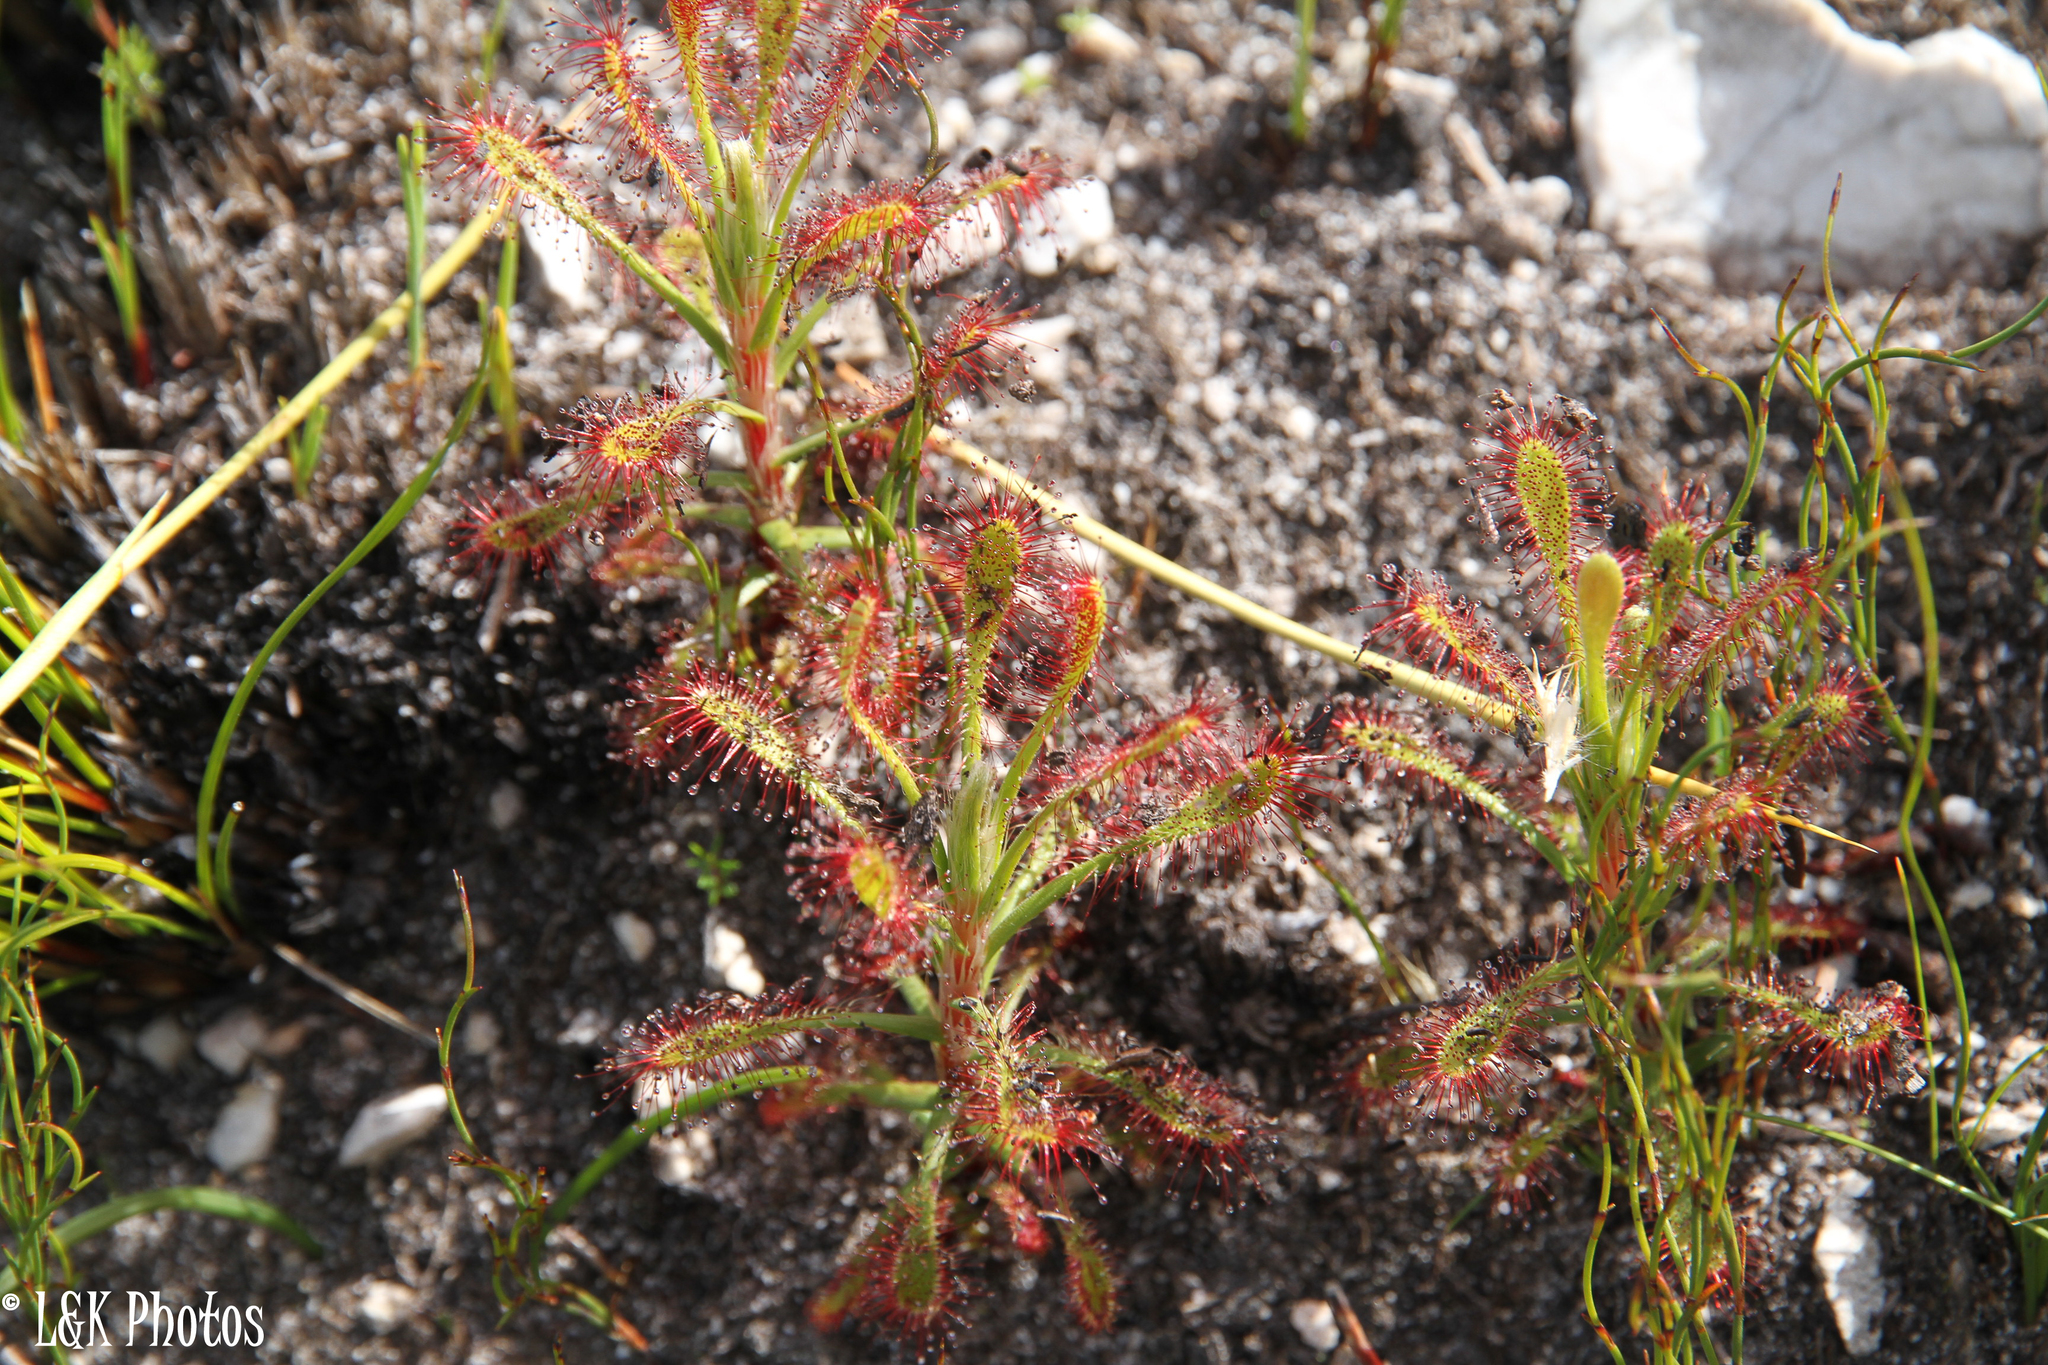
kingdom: Plantae
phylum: Tracheophyta
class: Magnoliopsida
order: Caryophyllales
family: Droseraceae
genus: Drosera
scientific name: Drosera glabripes
